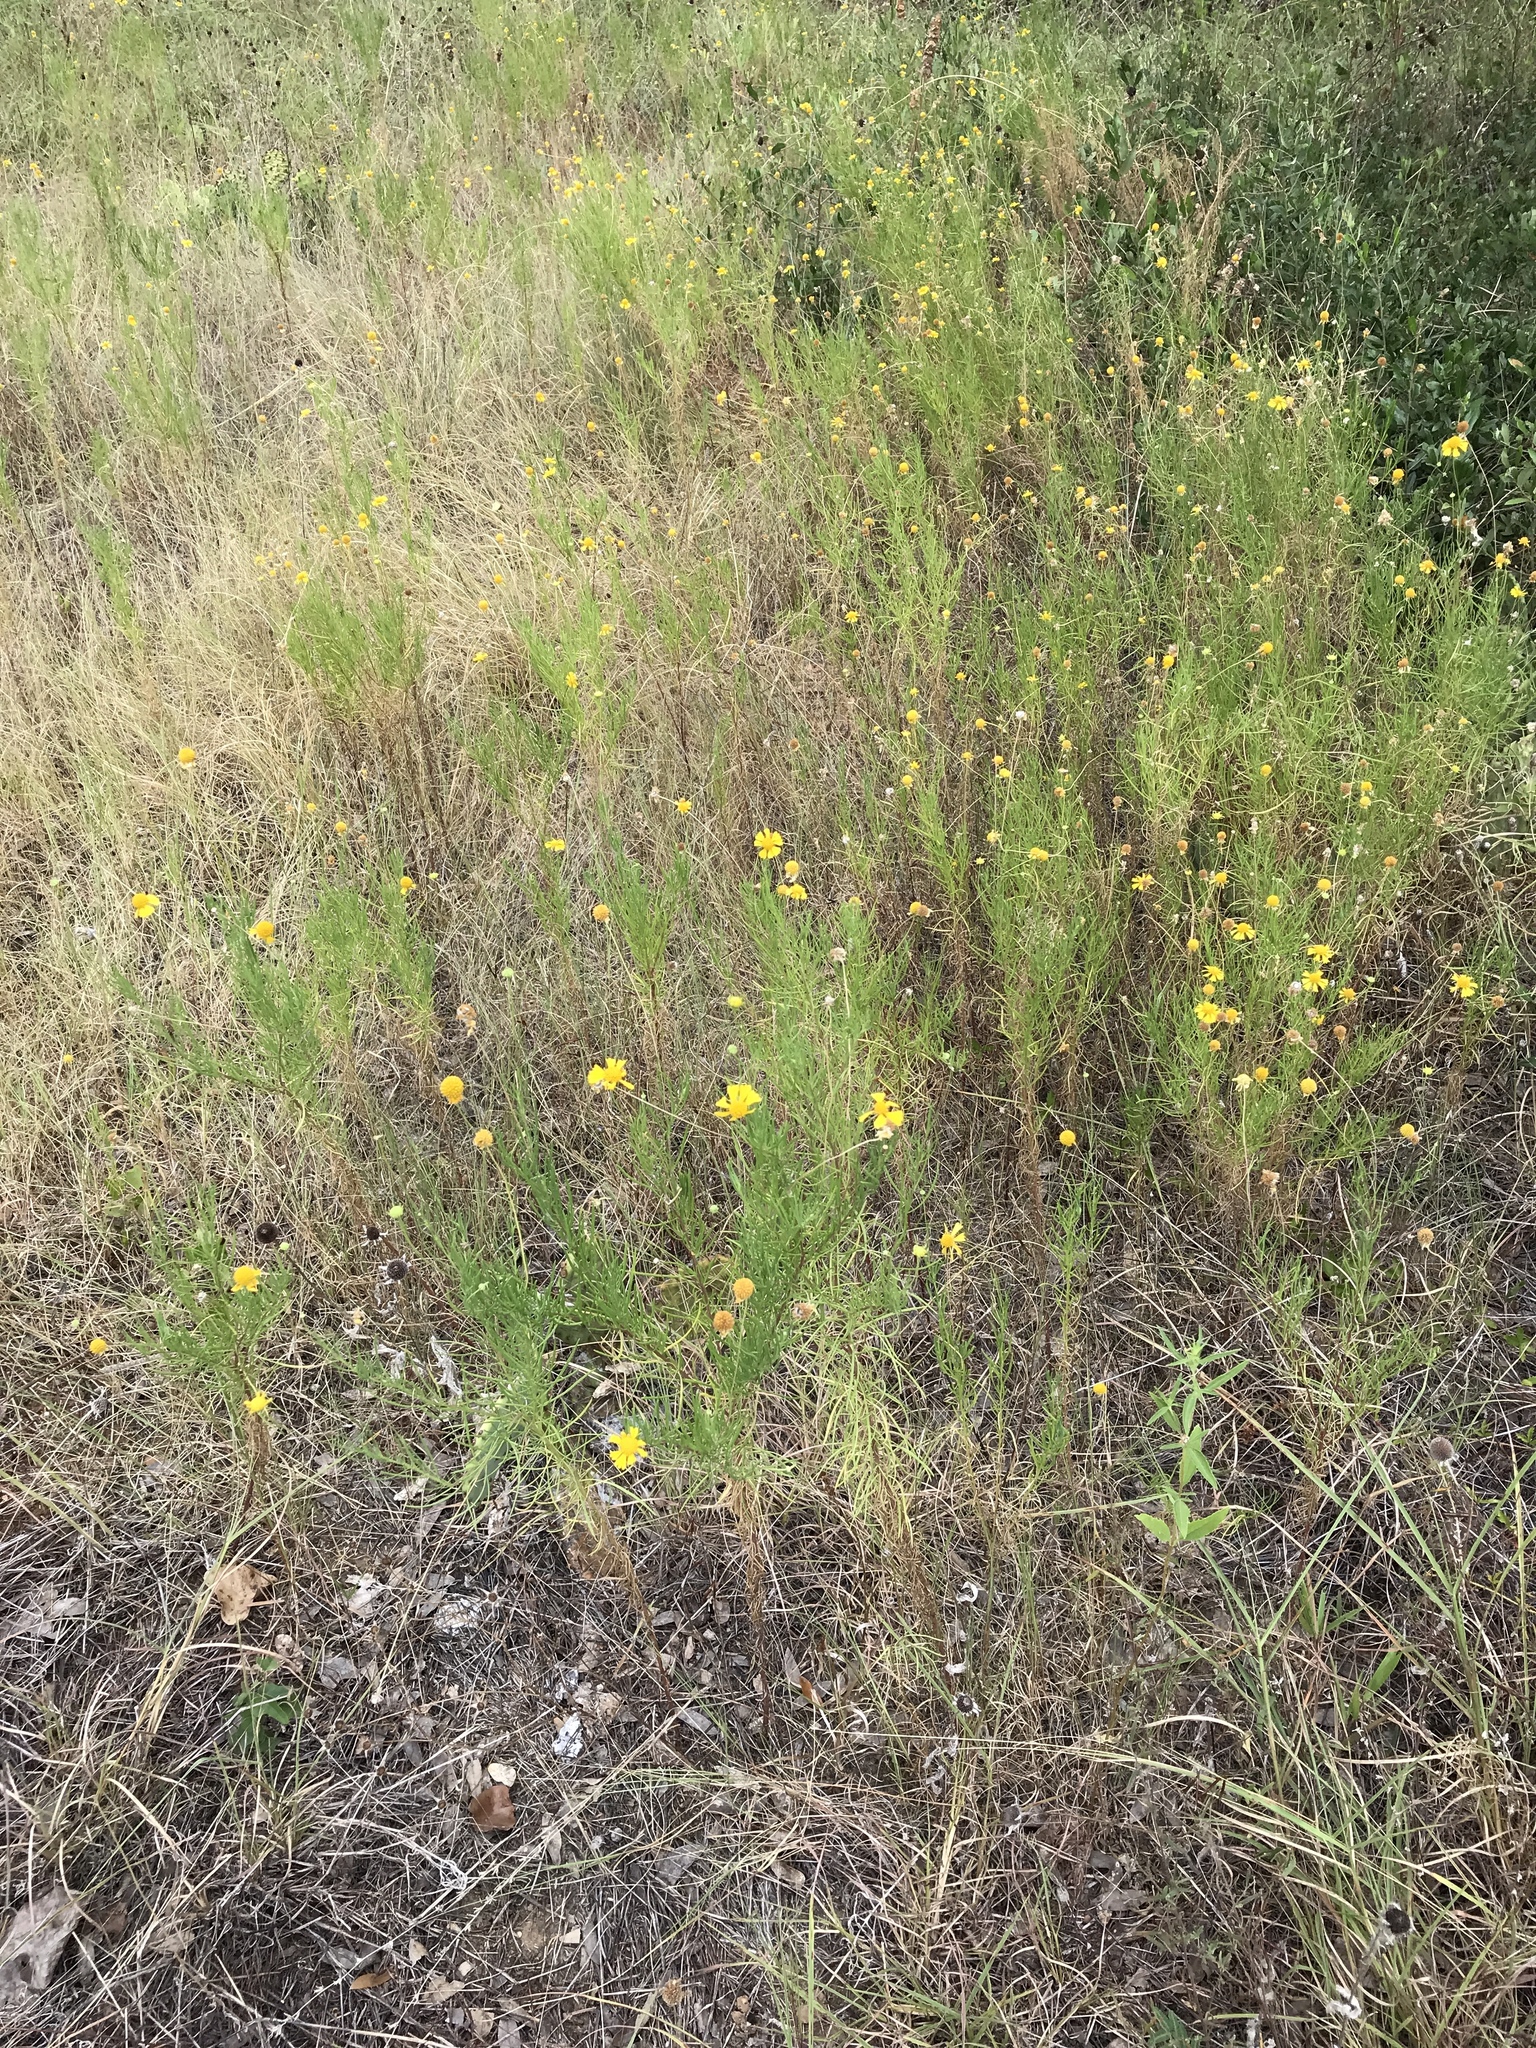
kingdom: Plantae
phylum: Tracheophyta
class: Magnoliopsida
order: Asterales
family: Asteraceae
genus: Helenium
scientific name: Helenium amarum
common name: Bitter sneezeweed
